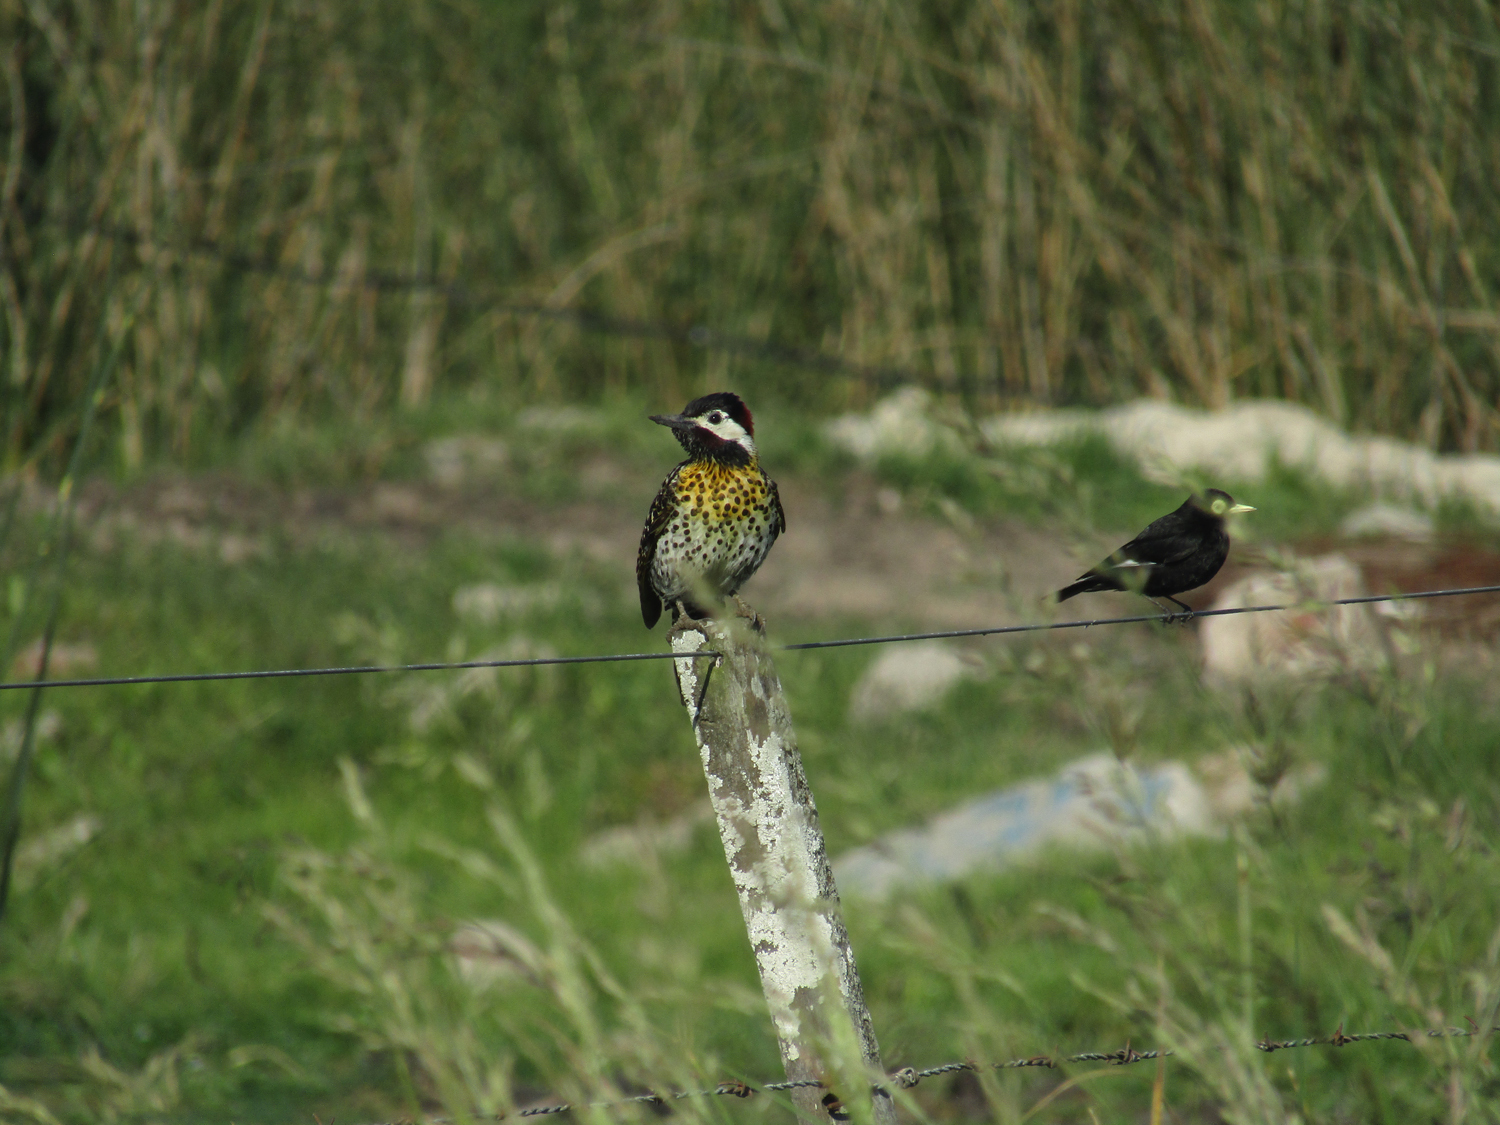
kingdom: Animalia
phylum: Chordata
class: Aves
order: Piciformes
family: Picidae
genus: Colaptes
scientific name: Colaptes melanochloros
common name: Green-barred woodpecker
